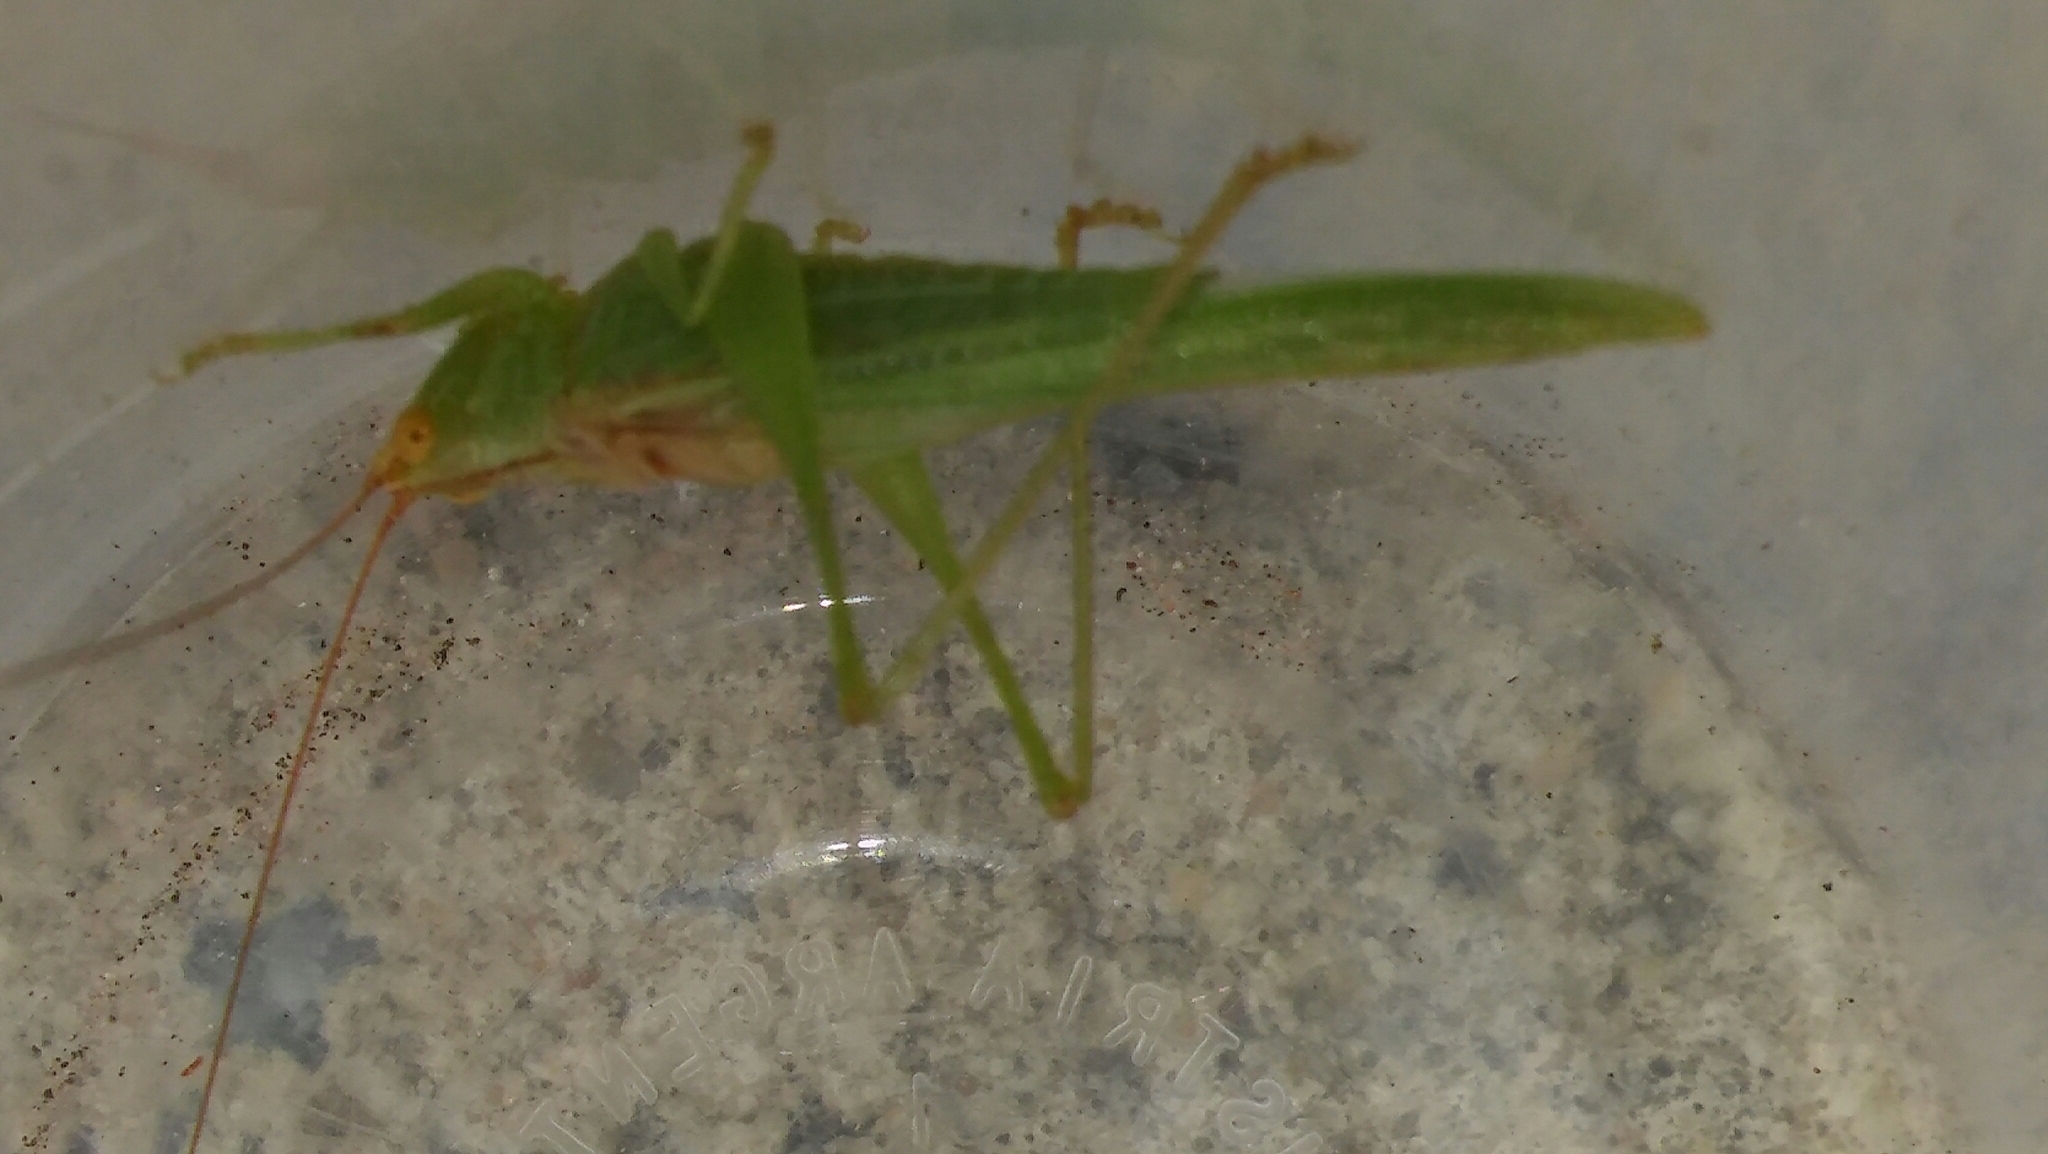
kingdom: Animalia
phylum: Arthropoda
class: Insecta
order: Orthoptera
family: Tettigoniidae
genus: Conocephalus
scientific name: Conocephalus longipes
